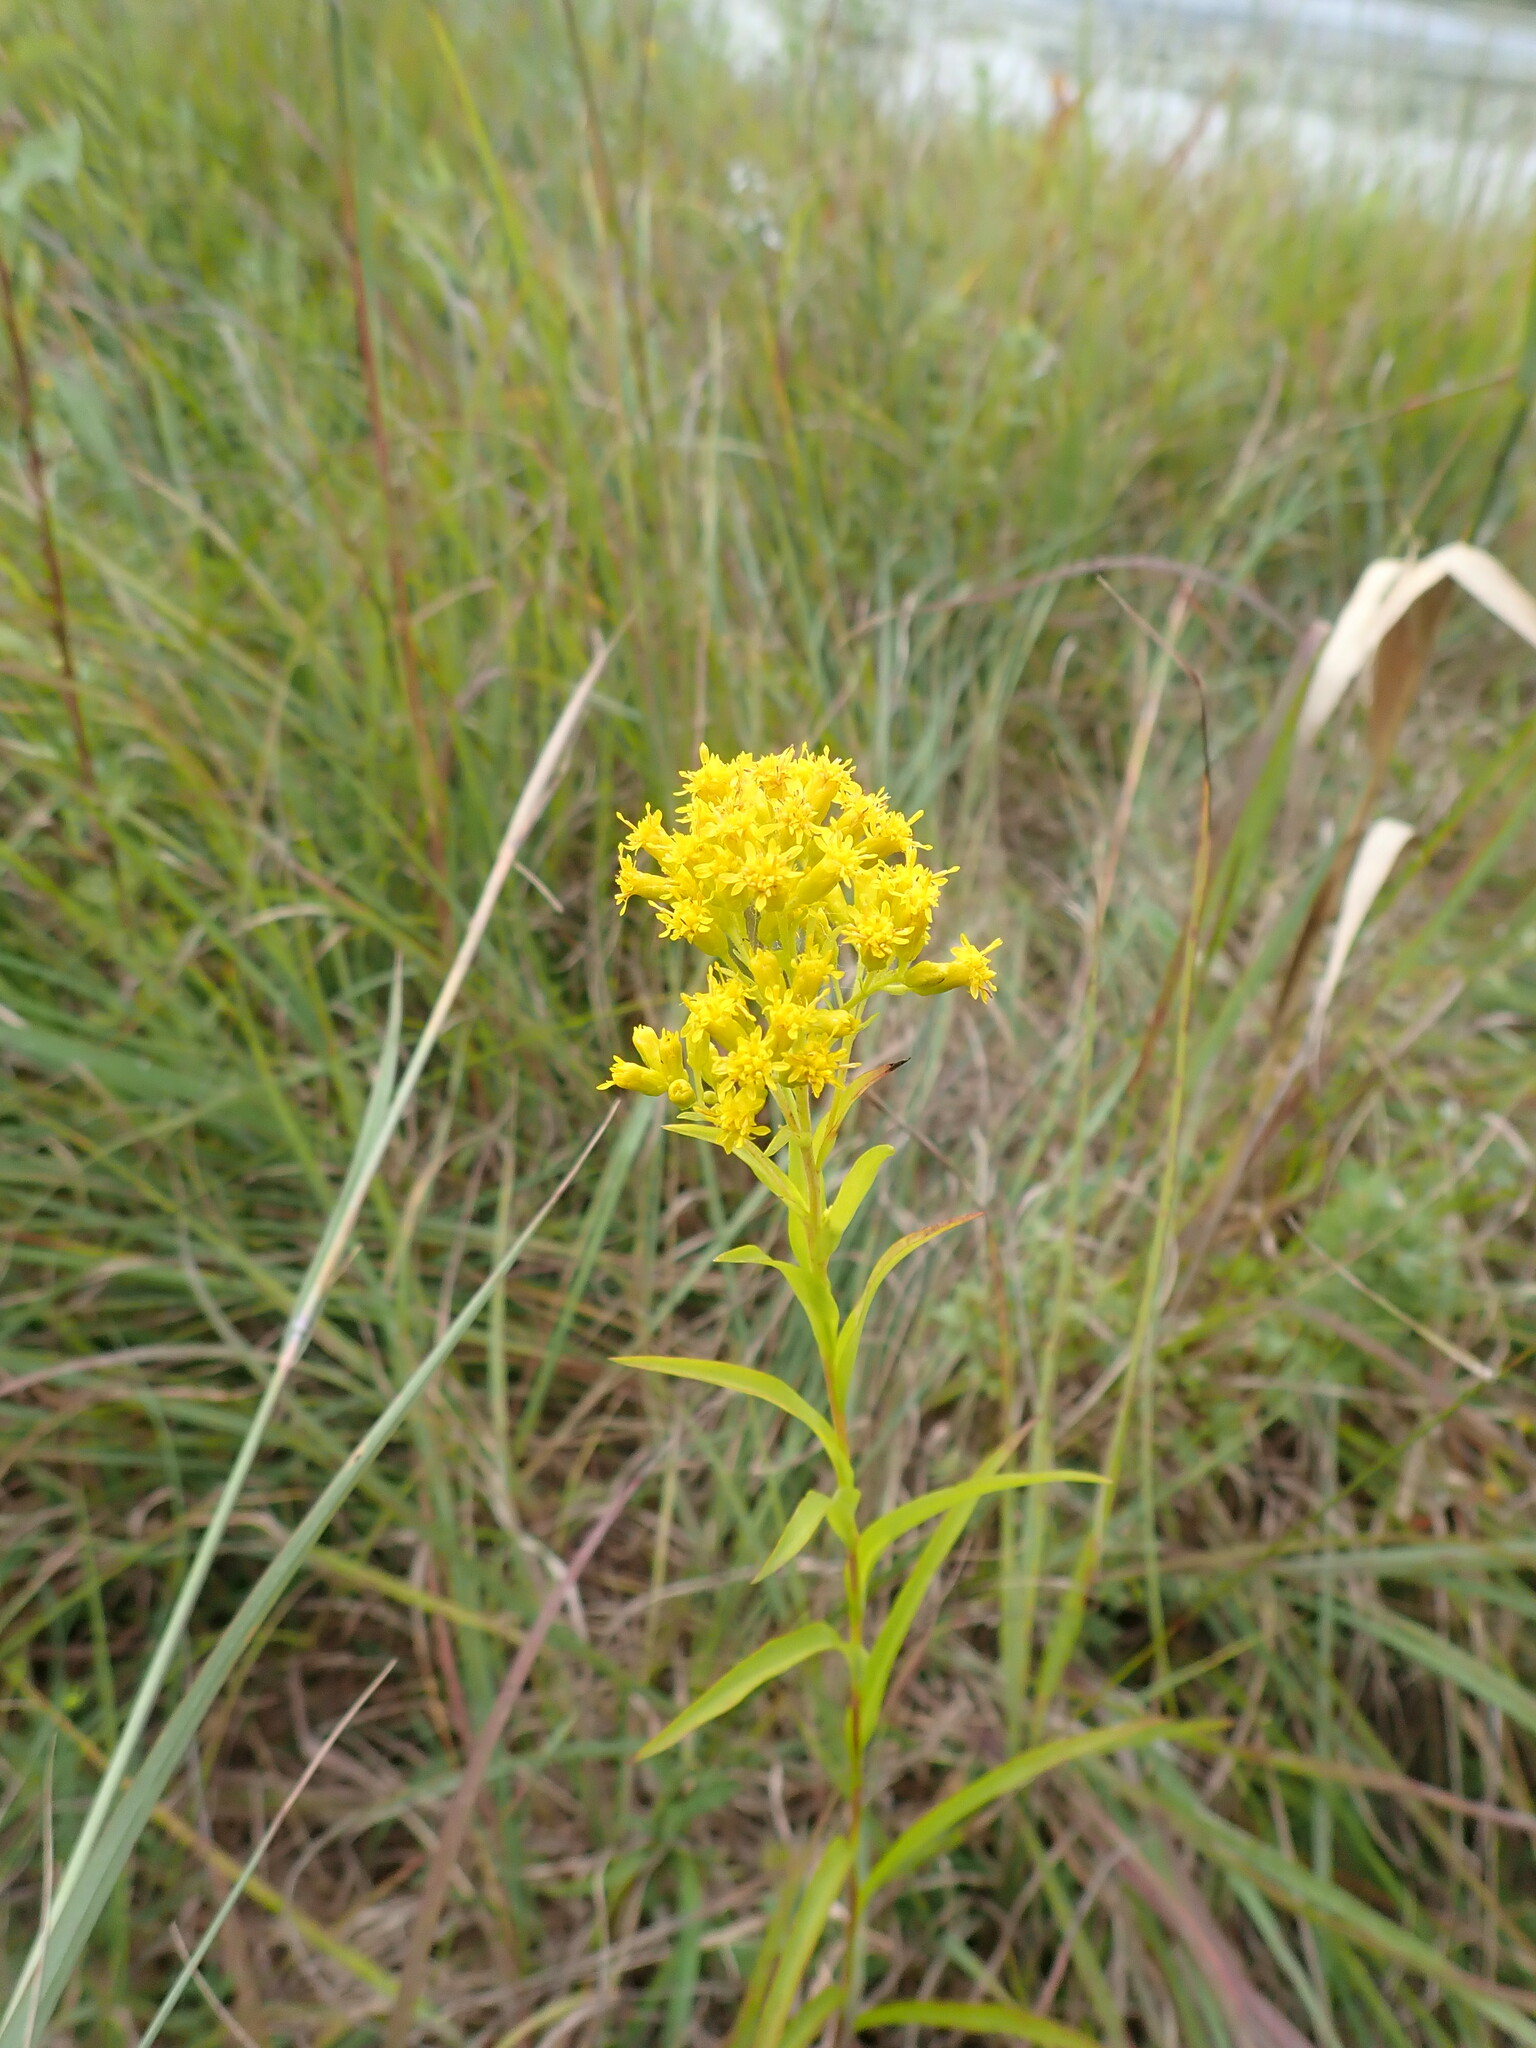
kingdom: Plantae
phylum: Tracheophyta
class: Magnoliopsida
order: Asterales
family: Asteraceae
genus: Solidago
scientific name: Solidago riddellii
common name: Riddell's goldenrod
